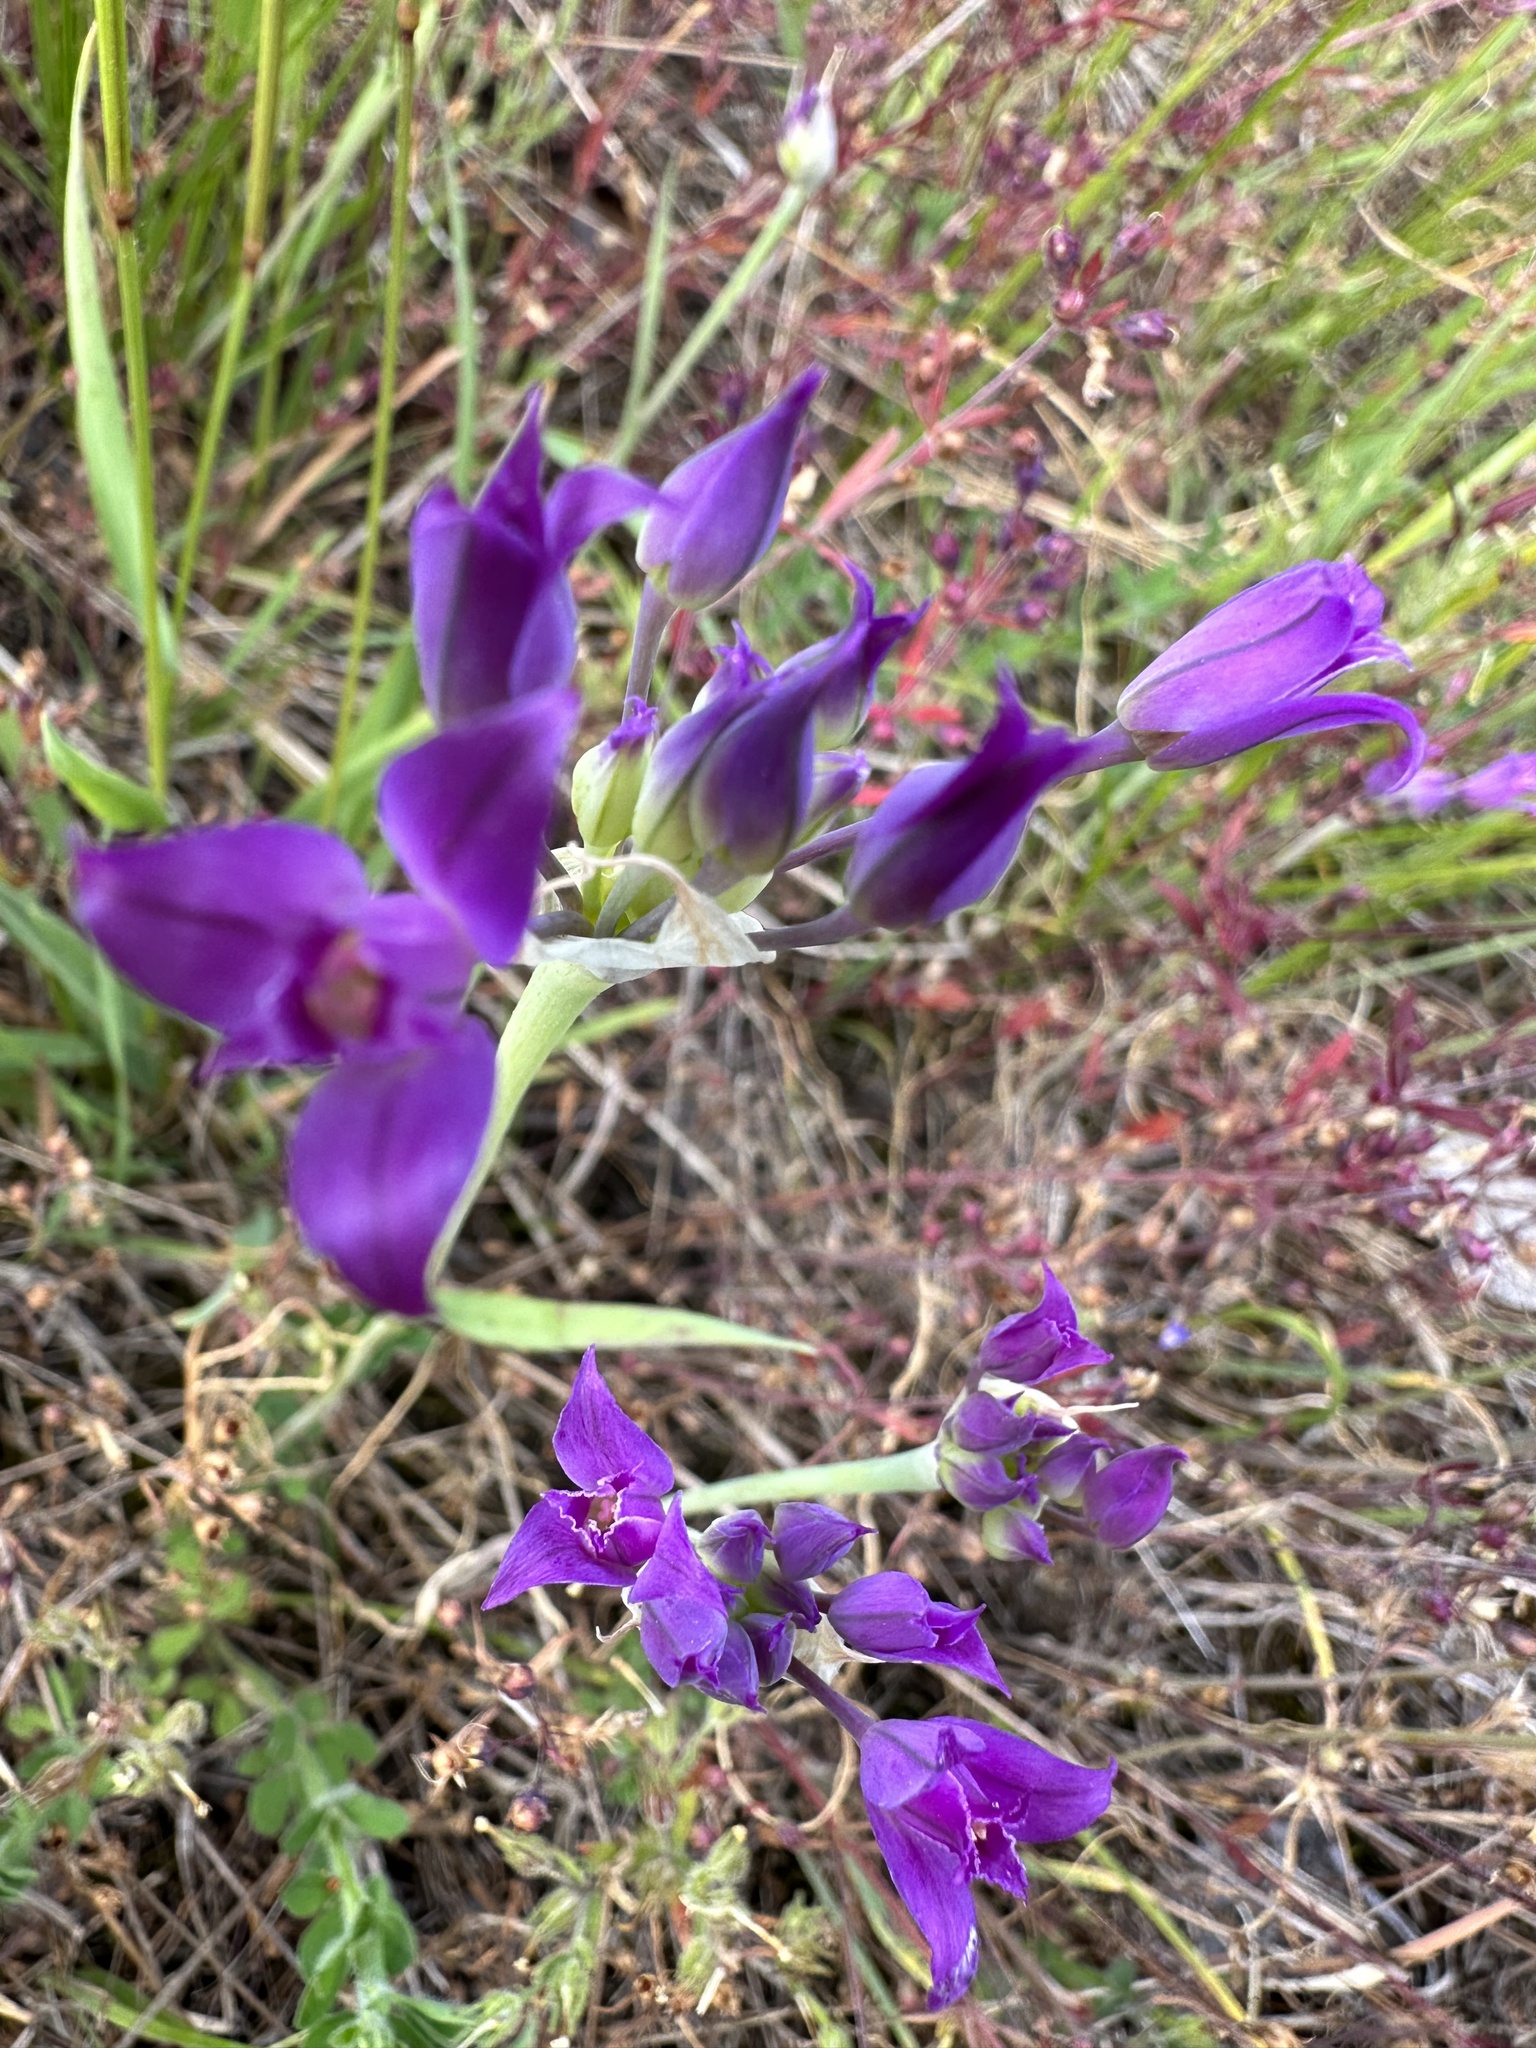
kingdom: Plantae
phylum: Tracheophyta
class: Liliopsida
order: Asparagales
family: Amaryllidaceae
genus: Allium
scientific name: Allium acuminatum
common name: Hooker's onion
